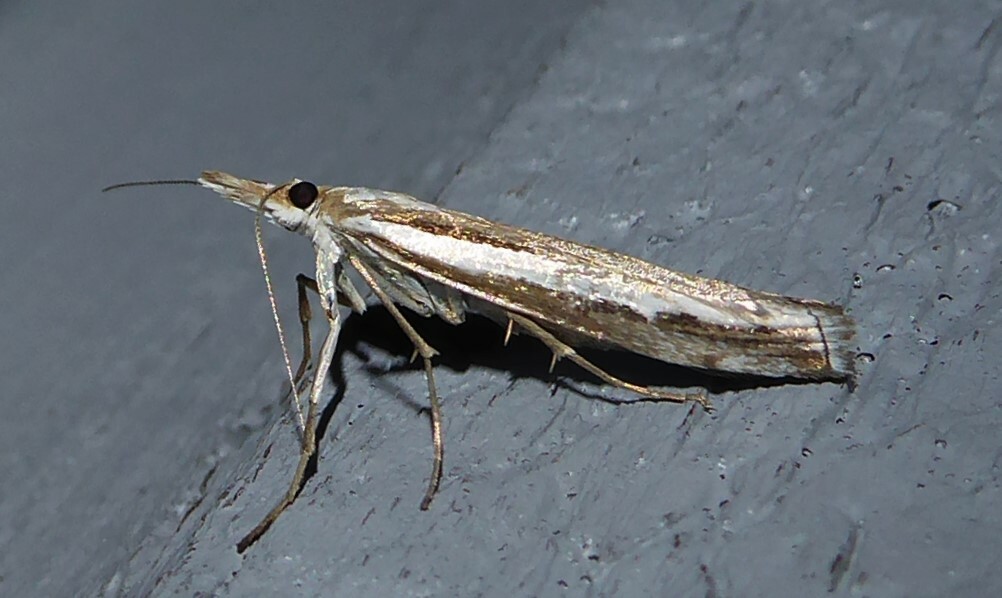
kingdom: Animalia
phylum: Arthropoda
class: Insecta
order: Lepidoptera
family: Crambidae
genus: Orocrambus
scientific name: Orocrambus vittellus
